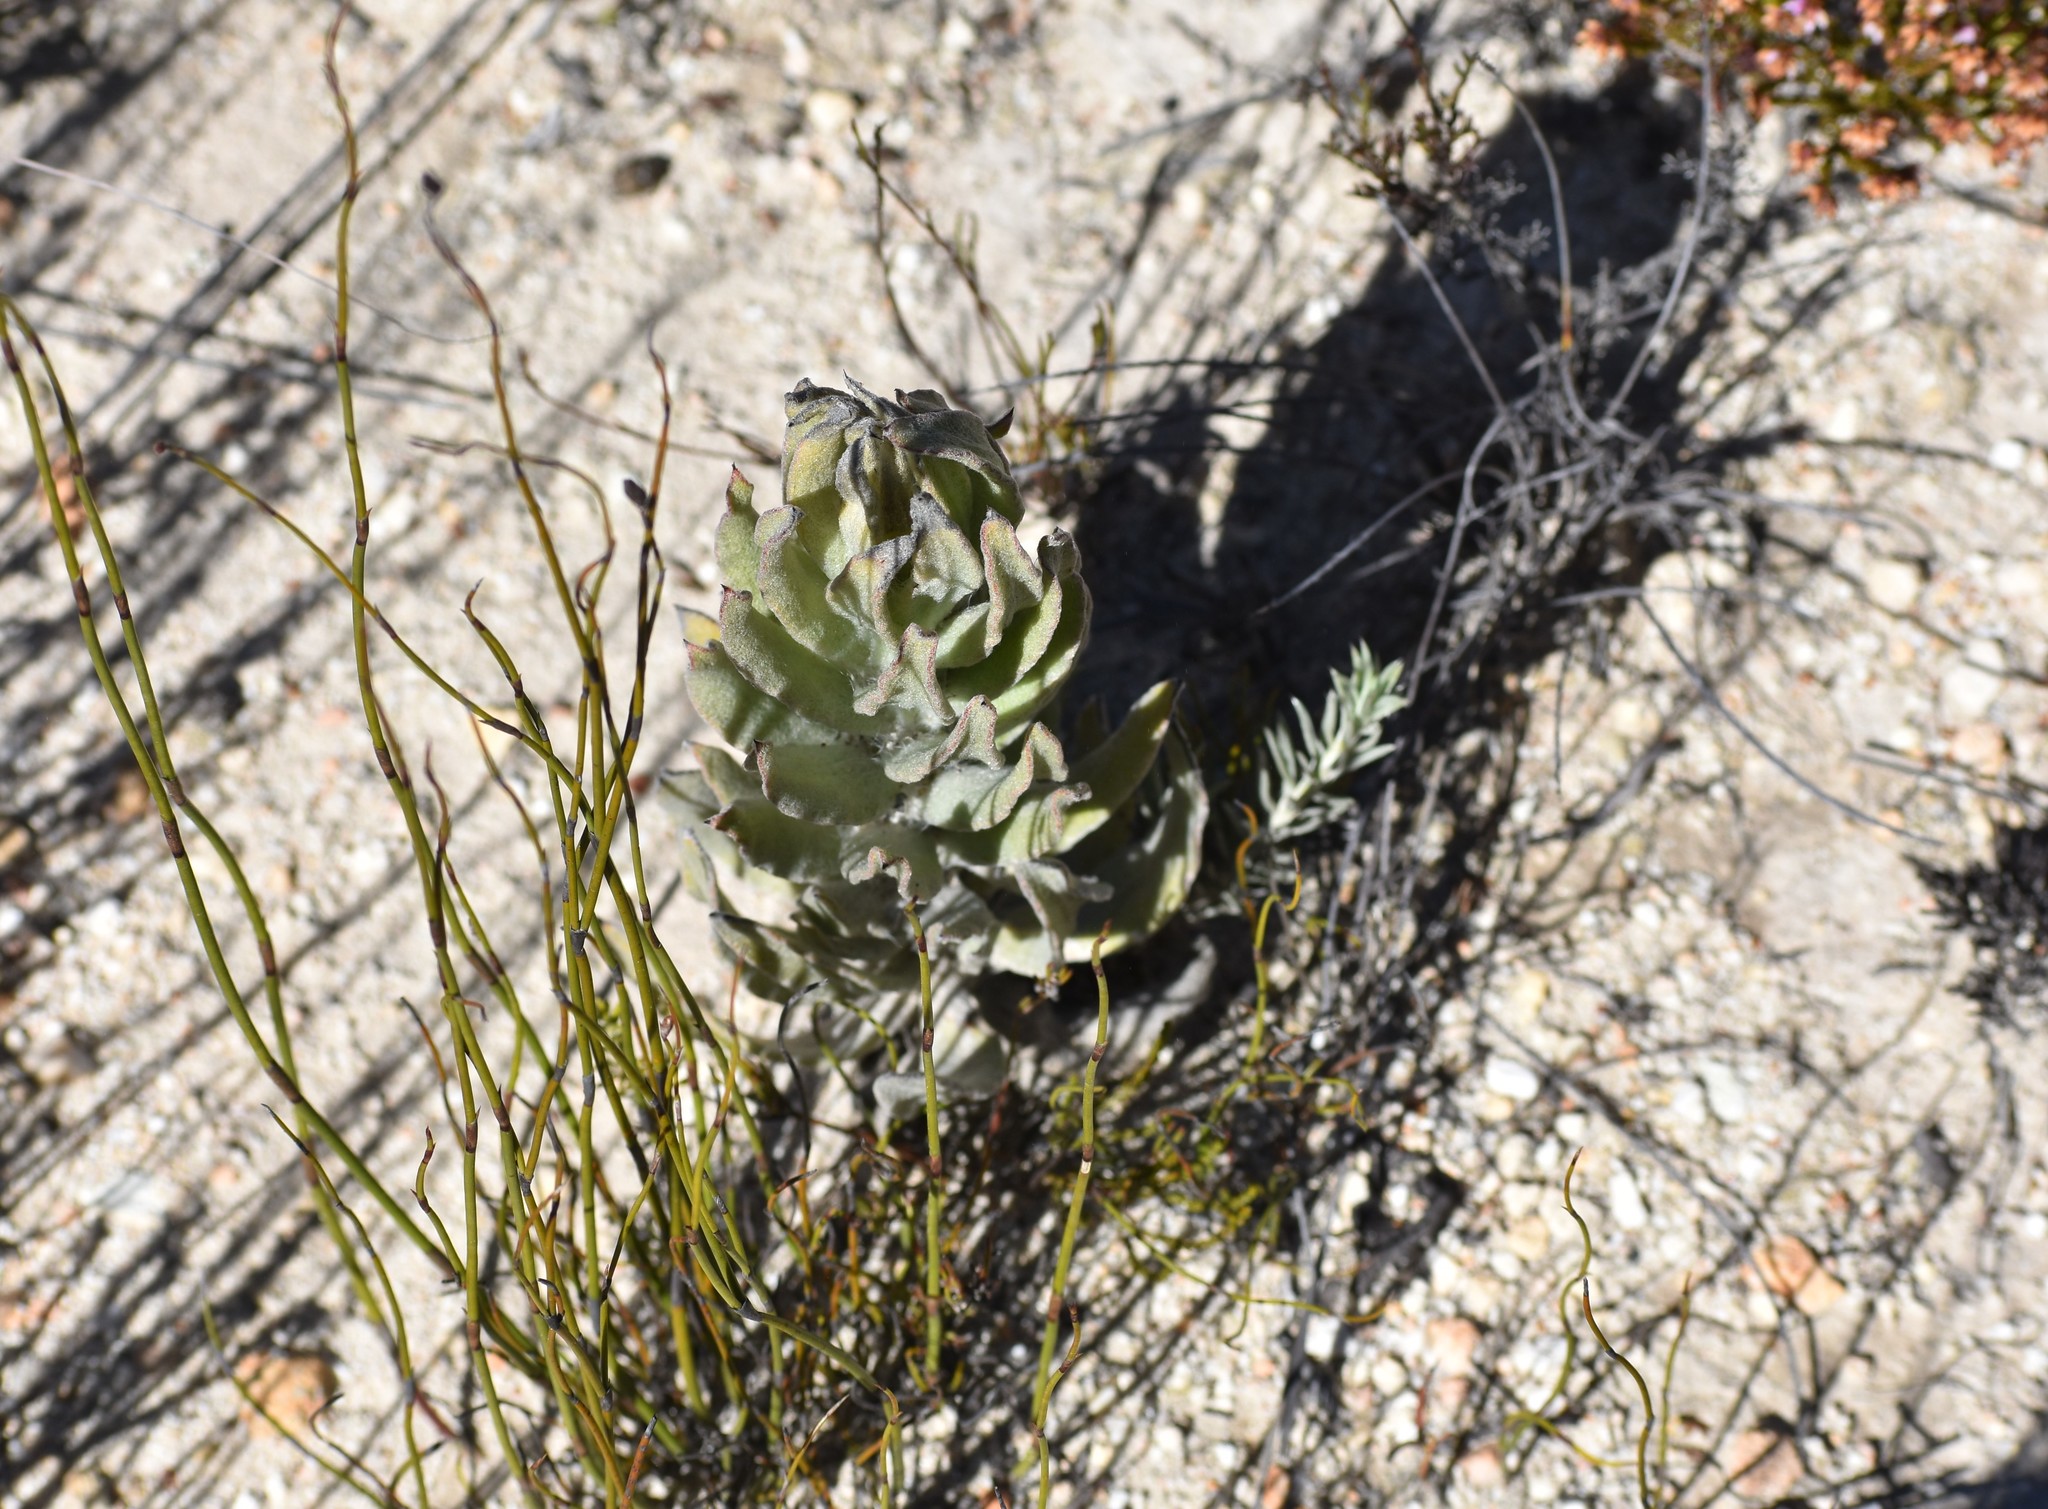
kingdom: Plantae
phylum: Tracheophyta
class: Magnoliopsida
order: Asterales
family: Asteraceae
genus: Syncarpha
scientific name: Syncarpha milleflora
